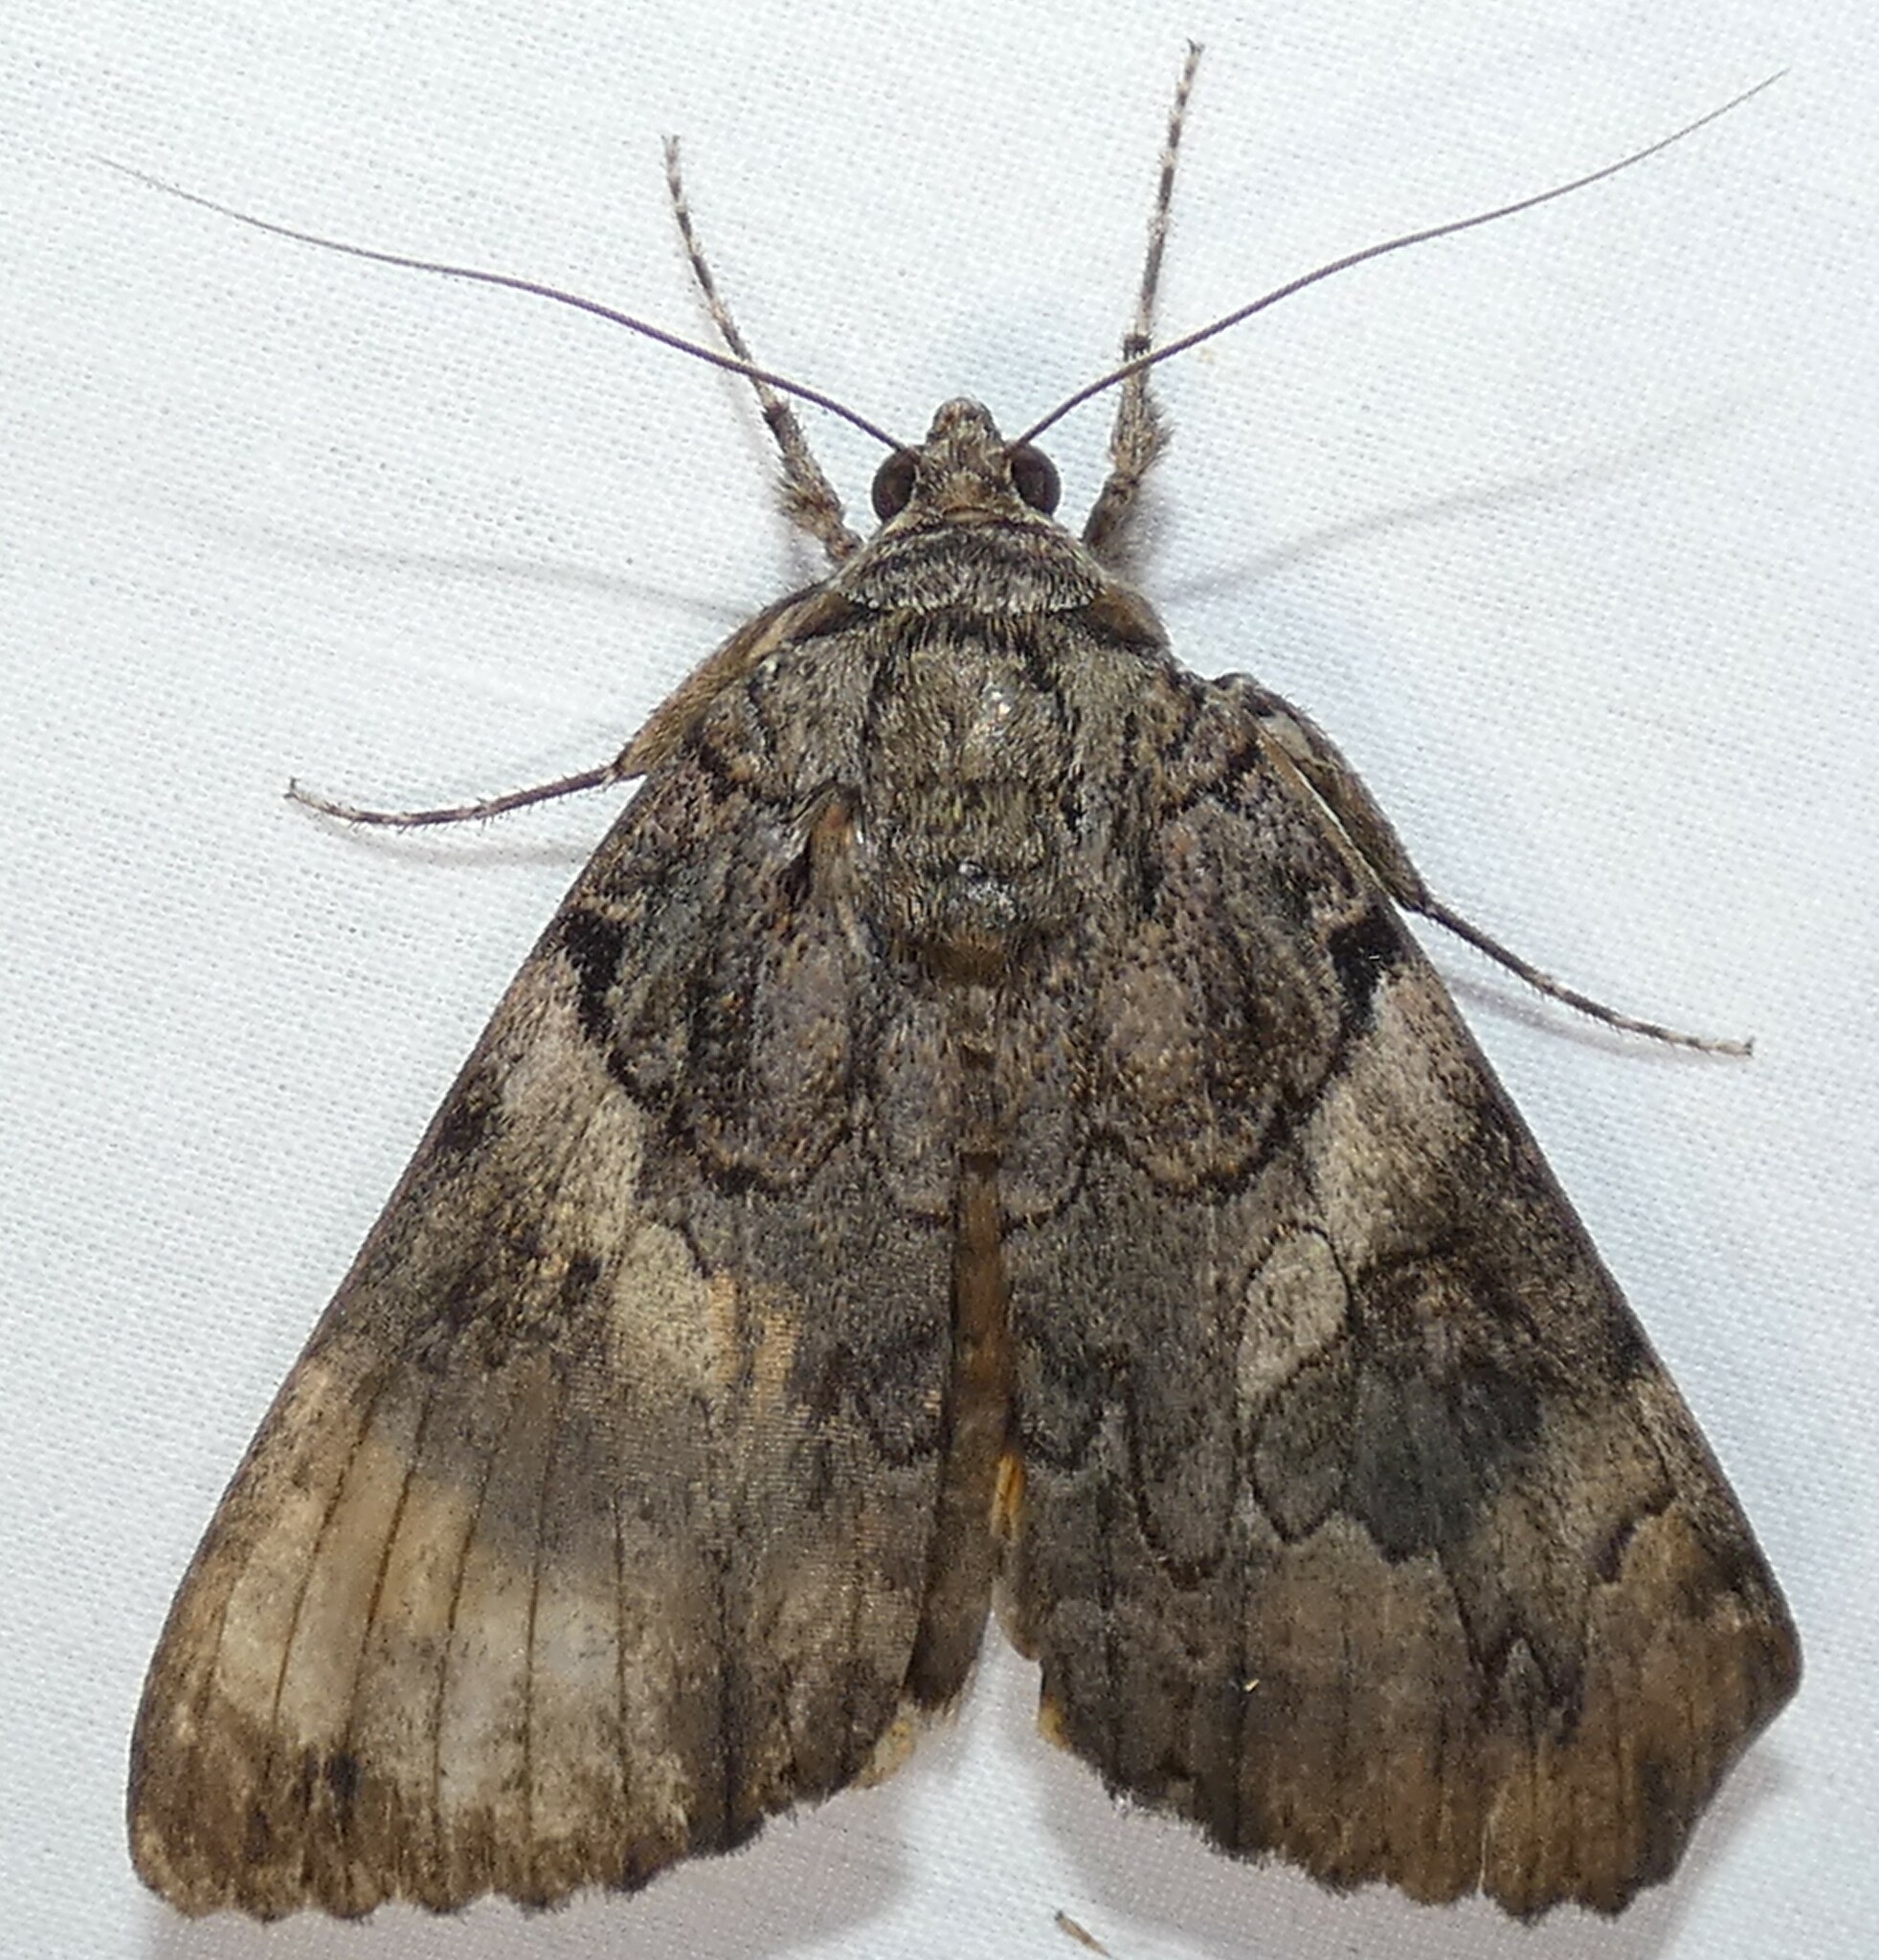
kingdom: Animalia
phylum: Arthropoda
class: Insecta
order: Lepidoptera
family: Erebidae
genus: Catocala
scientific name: Catocala piatrix
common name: The penitent underwing
